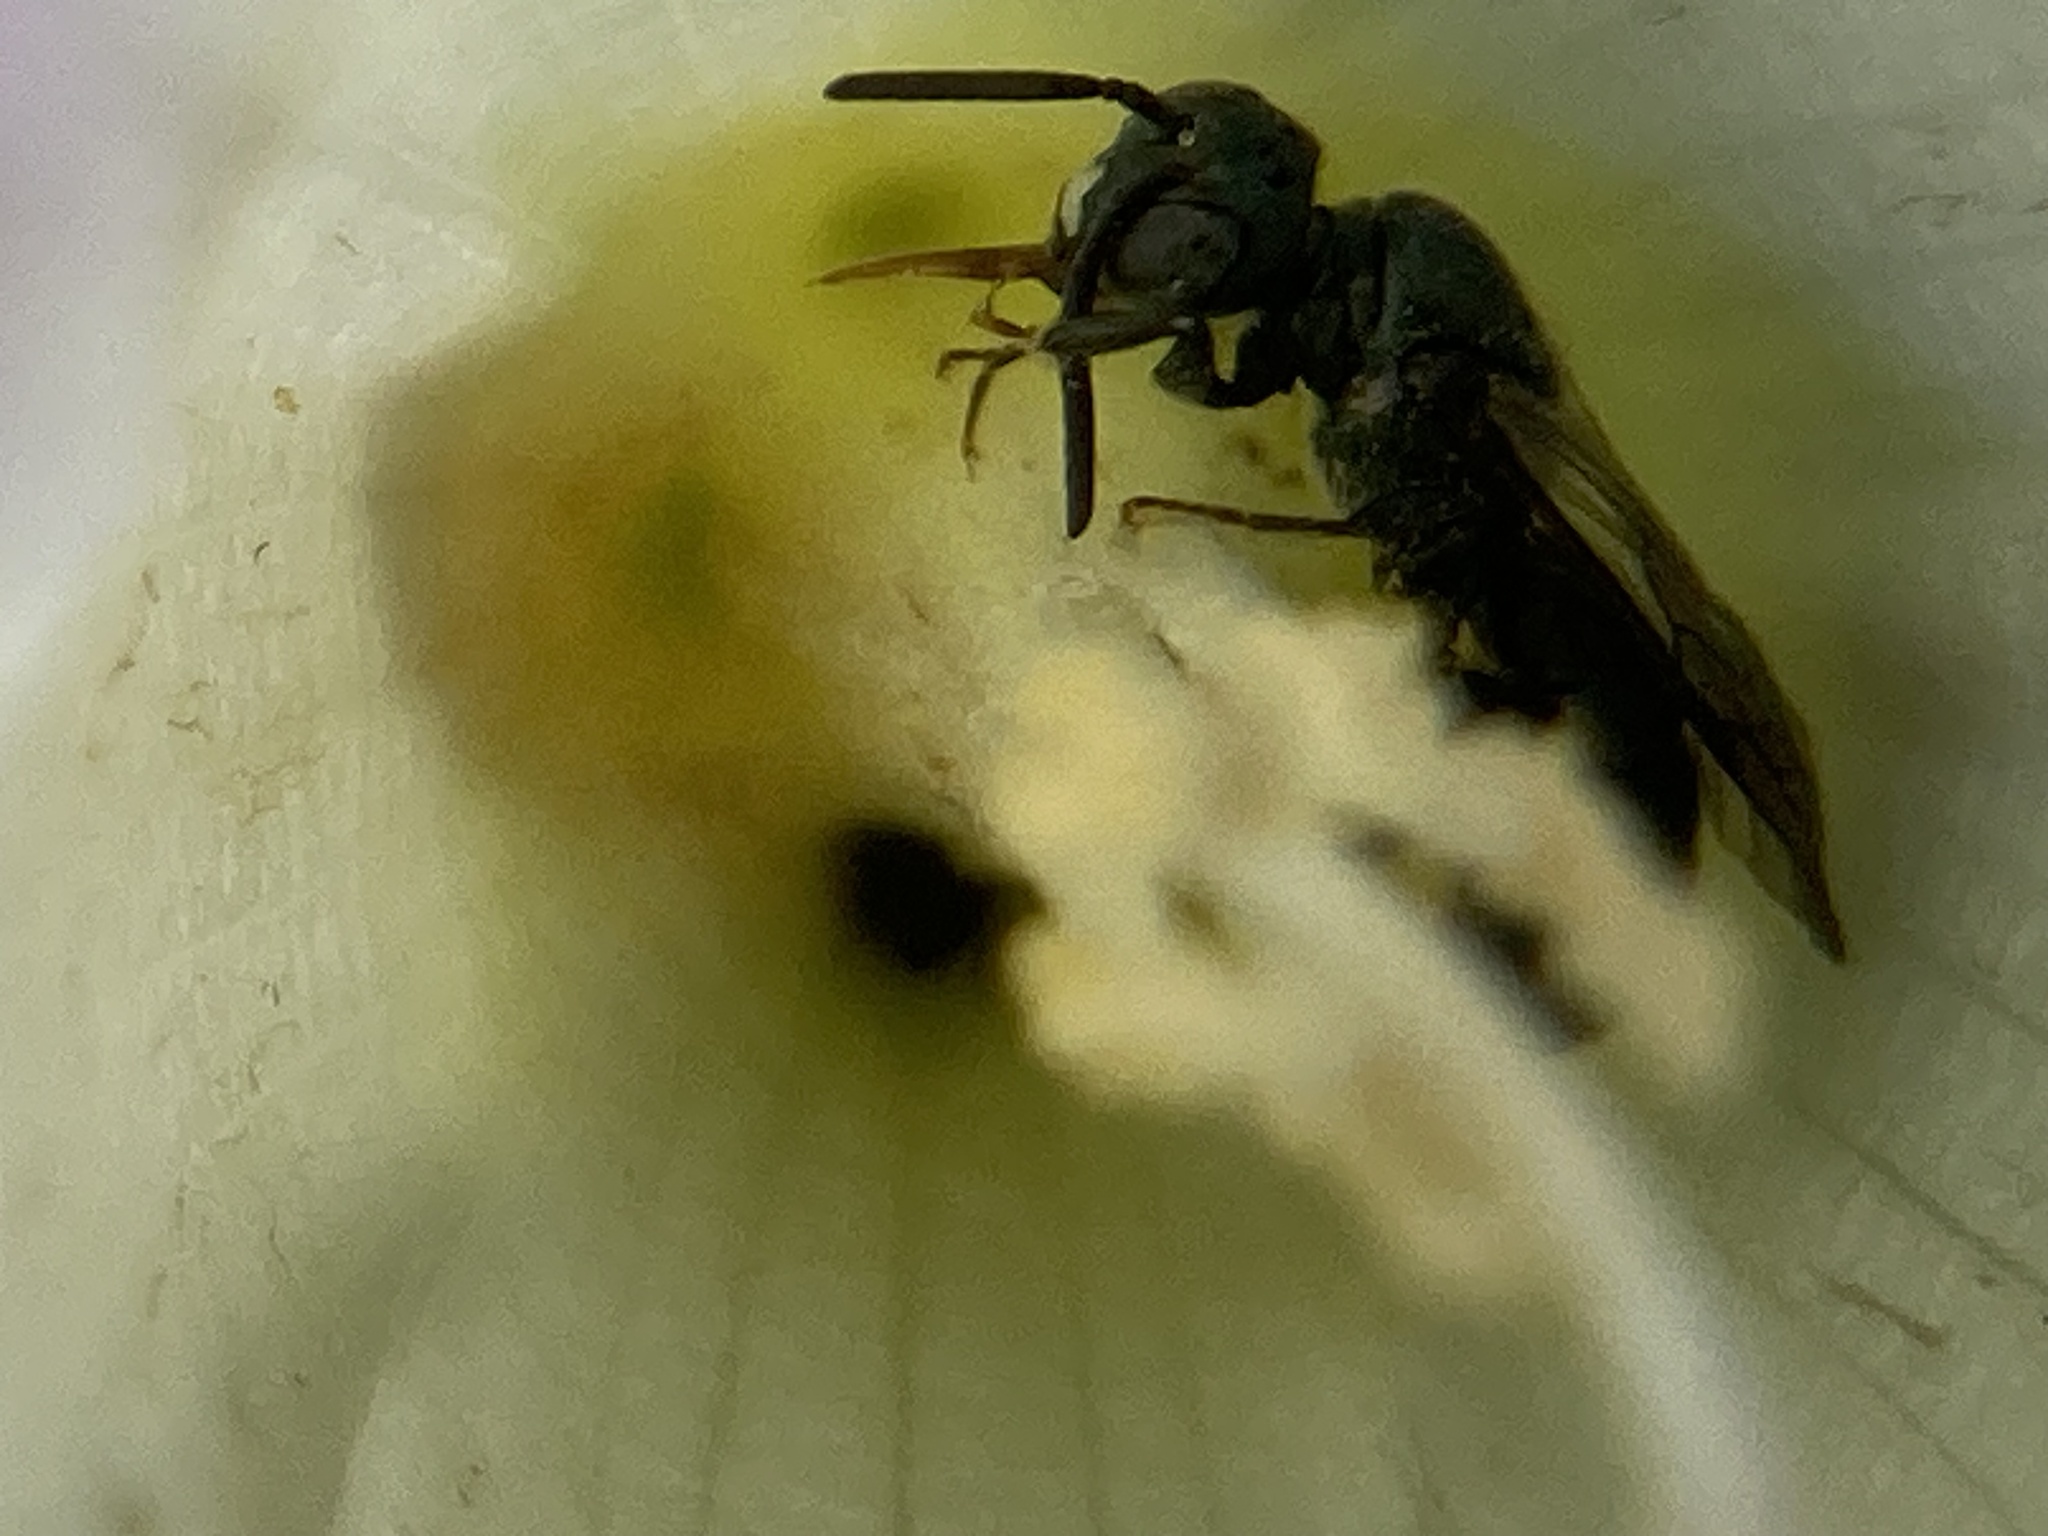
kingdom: Animalia
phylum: Arthropoda
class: Insecta
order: Hymenoptera
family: Apidae
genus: Zadontomerus
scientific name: Zadontomerus
